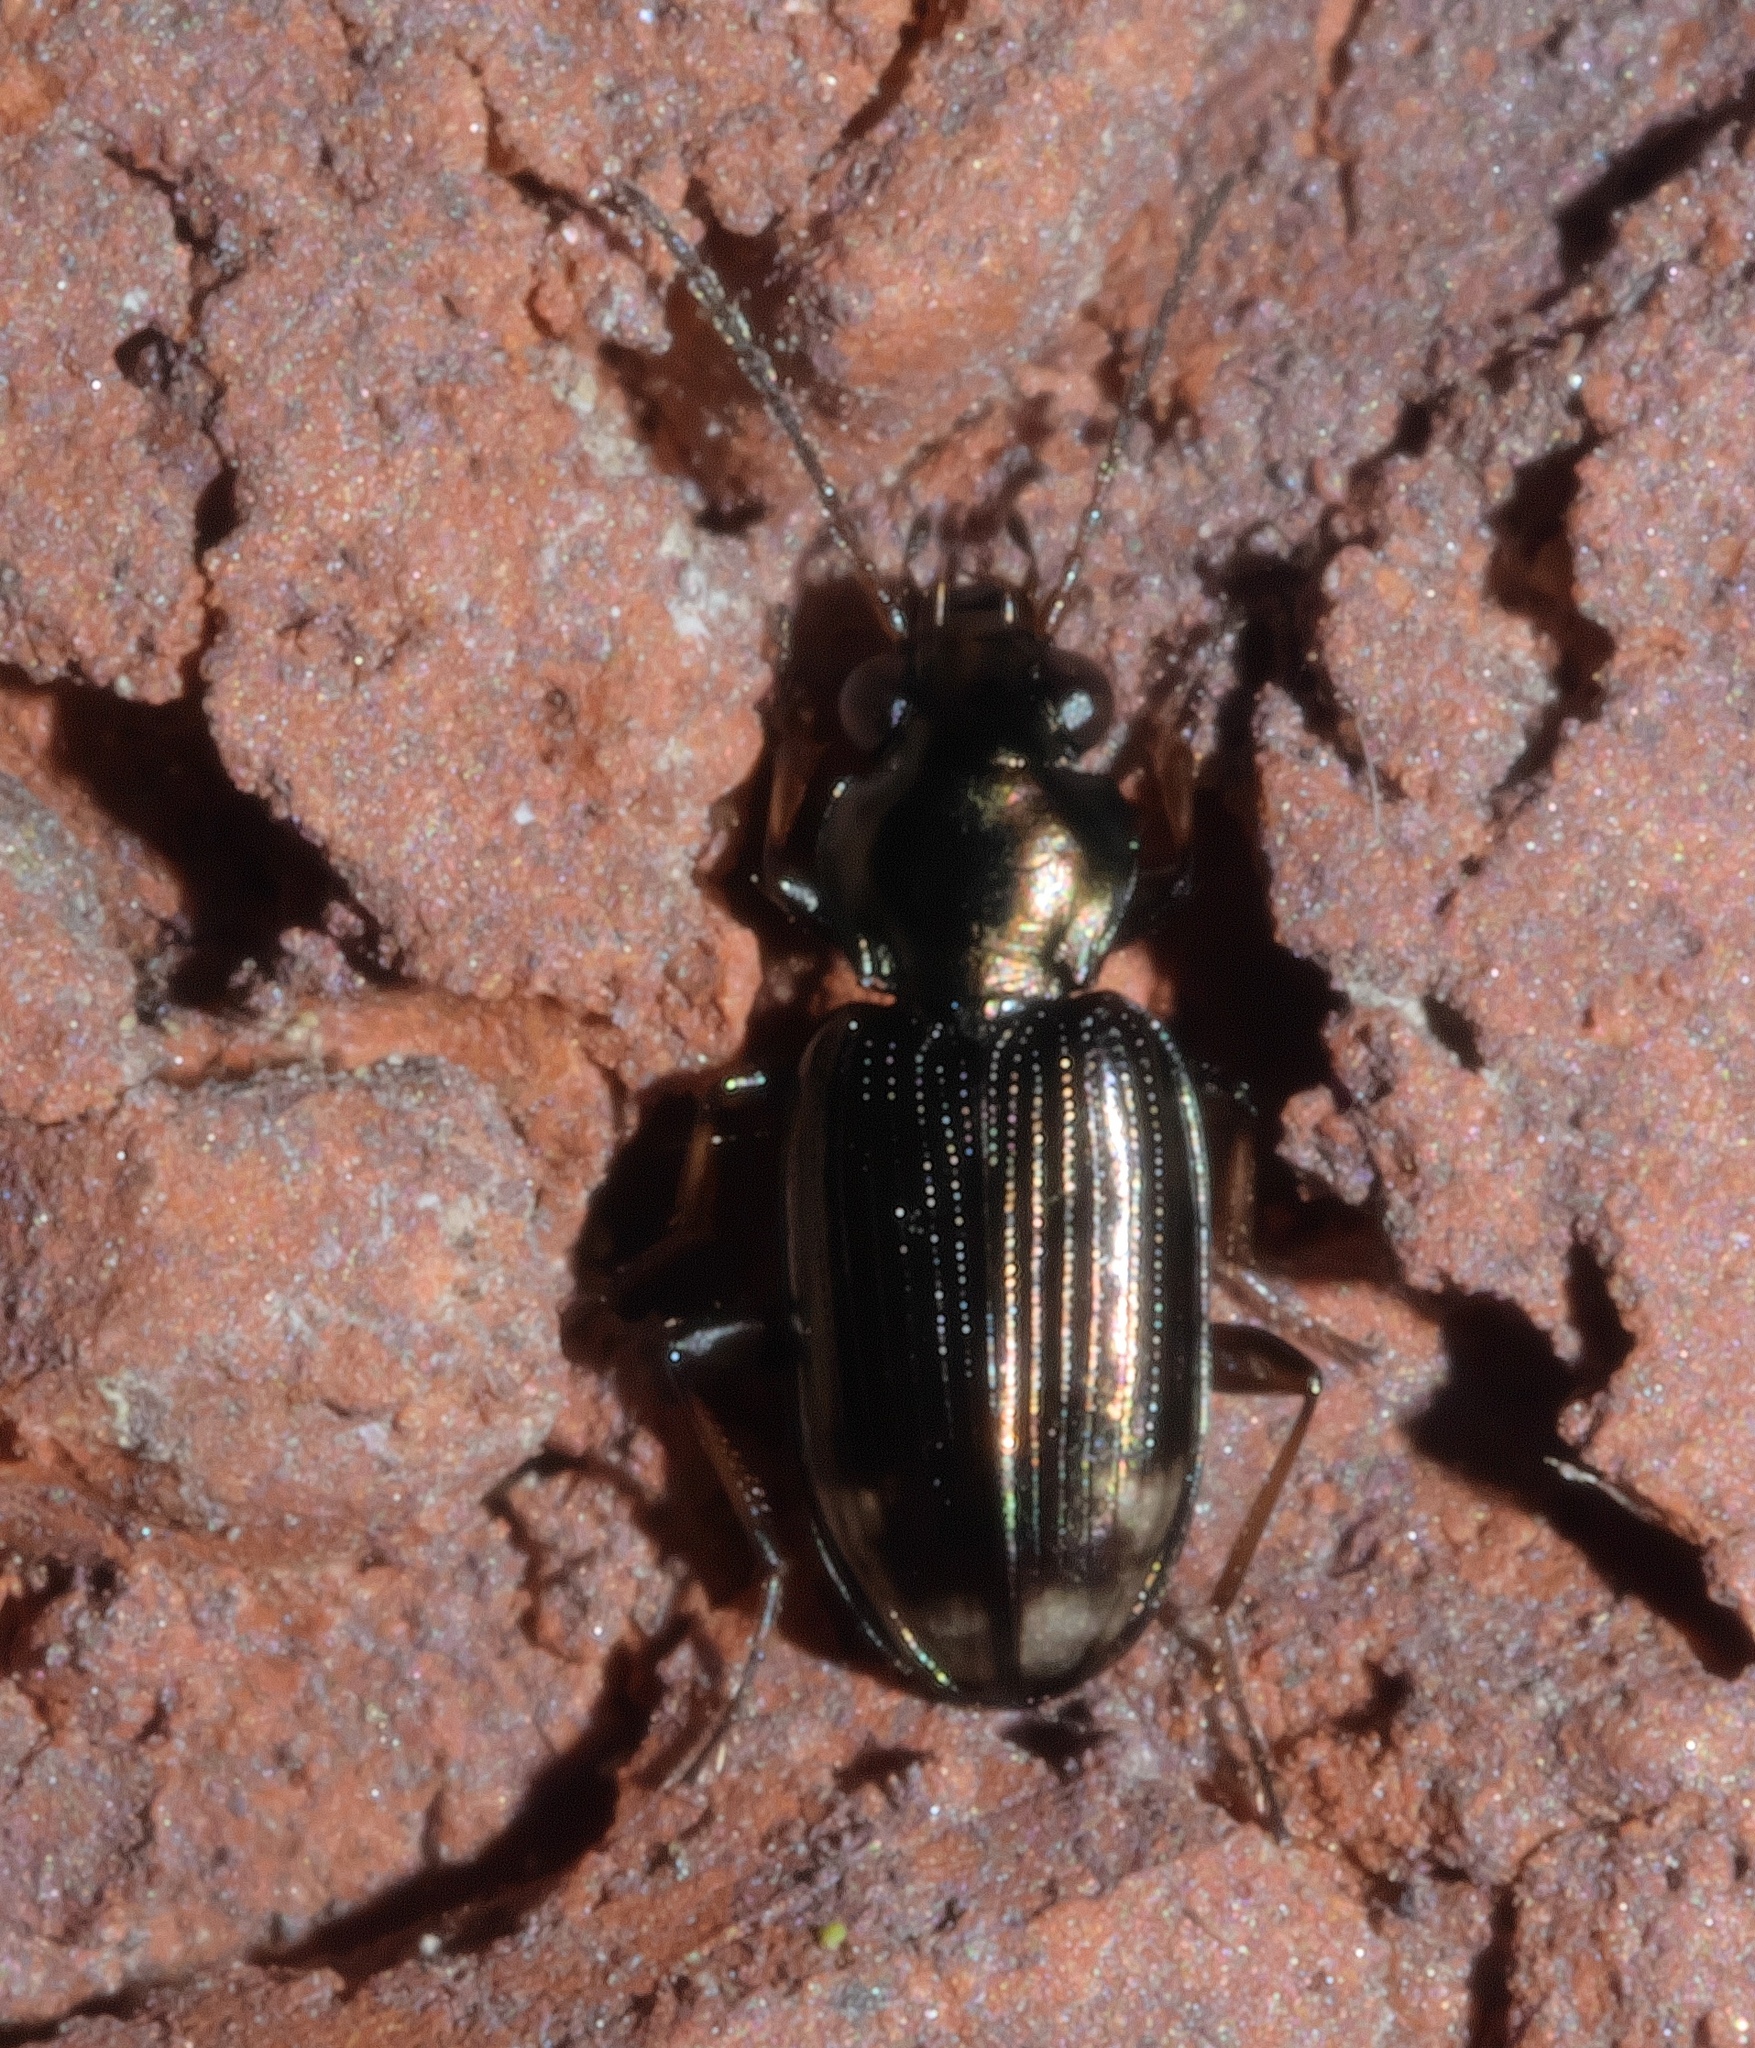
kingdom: Animalia
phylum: Arthropoda
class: Insecta
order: Coleoptera
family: Carabidae
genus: Bembidion
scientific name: Bembidion rapidum
